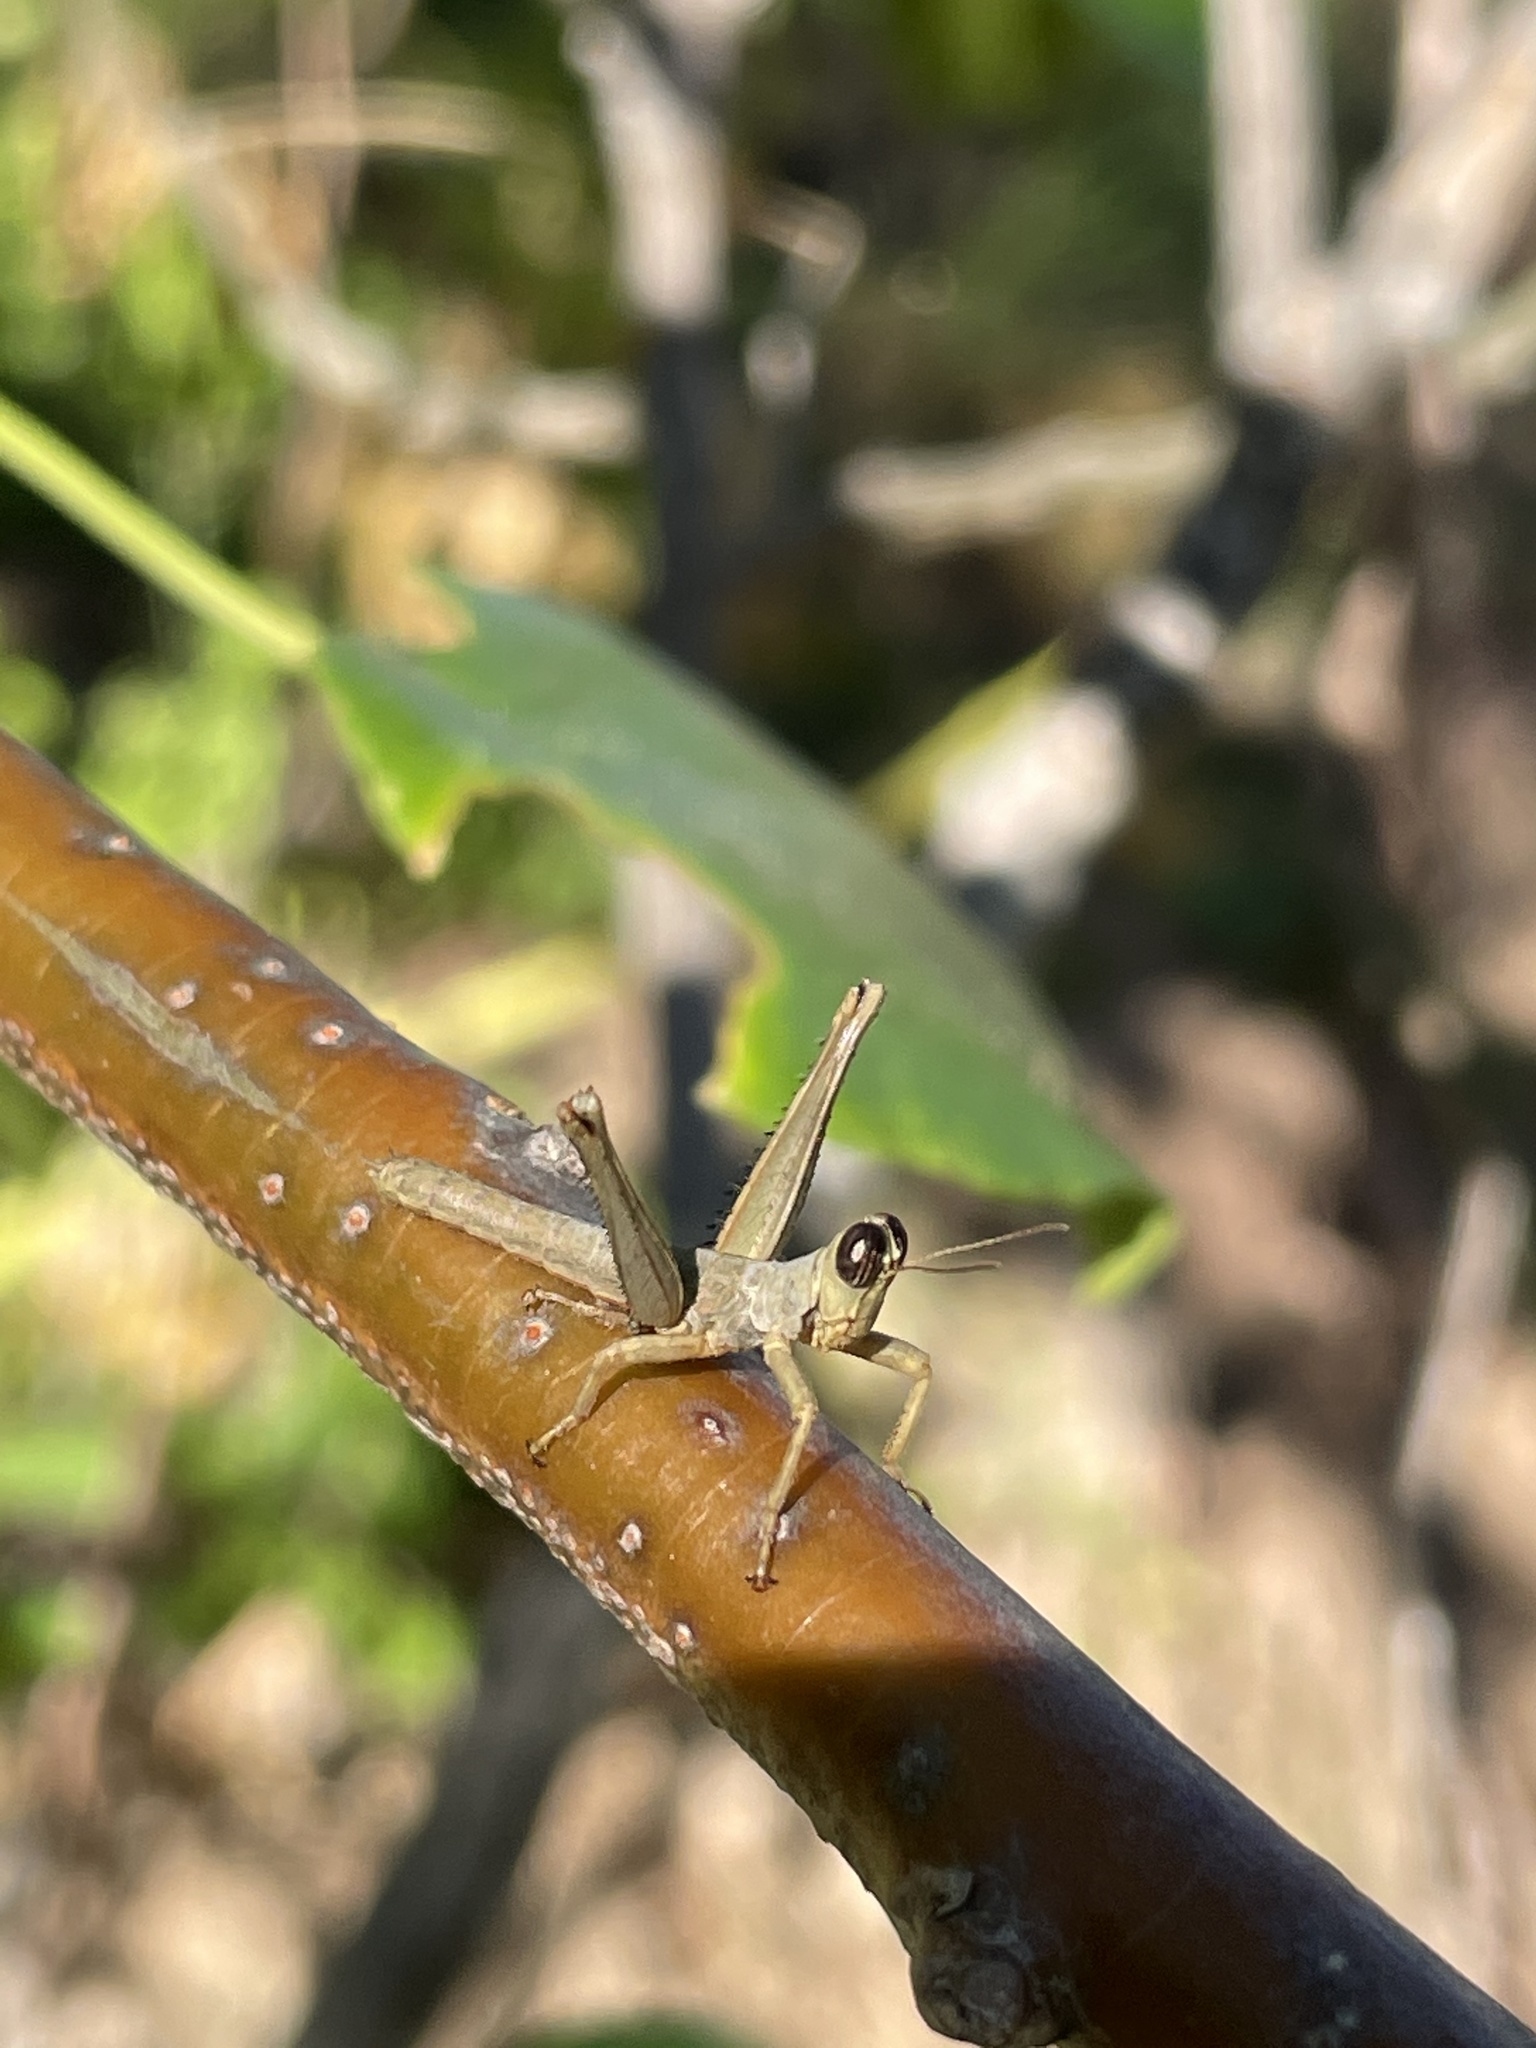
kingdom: Animalia
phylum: Arthropoda
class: Insecta
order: Orthoptera
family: Episactidae
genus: Teicophrys
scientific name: Teicophrys fusiformis
